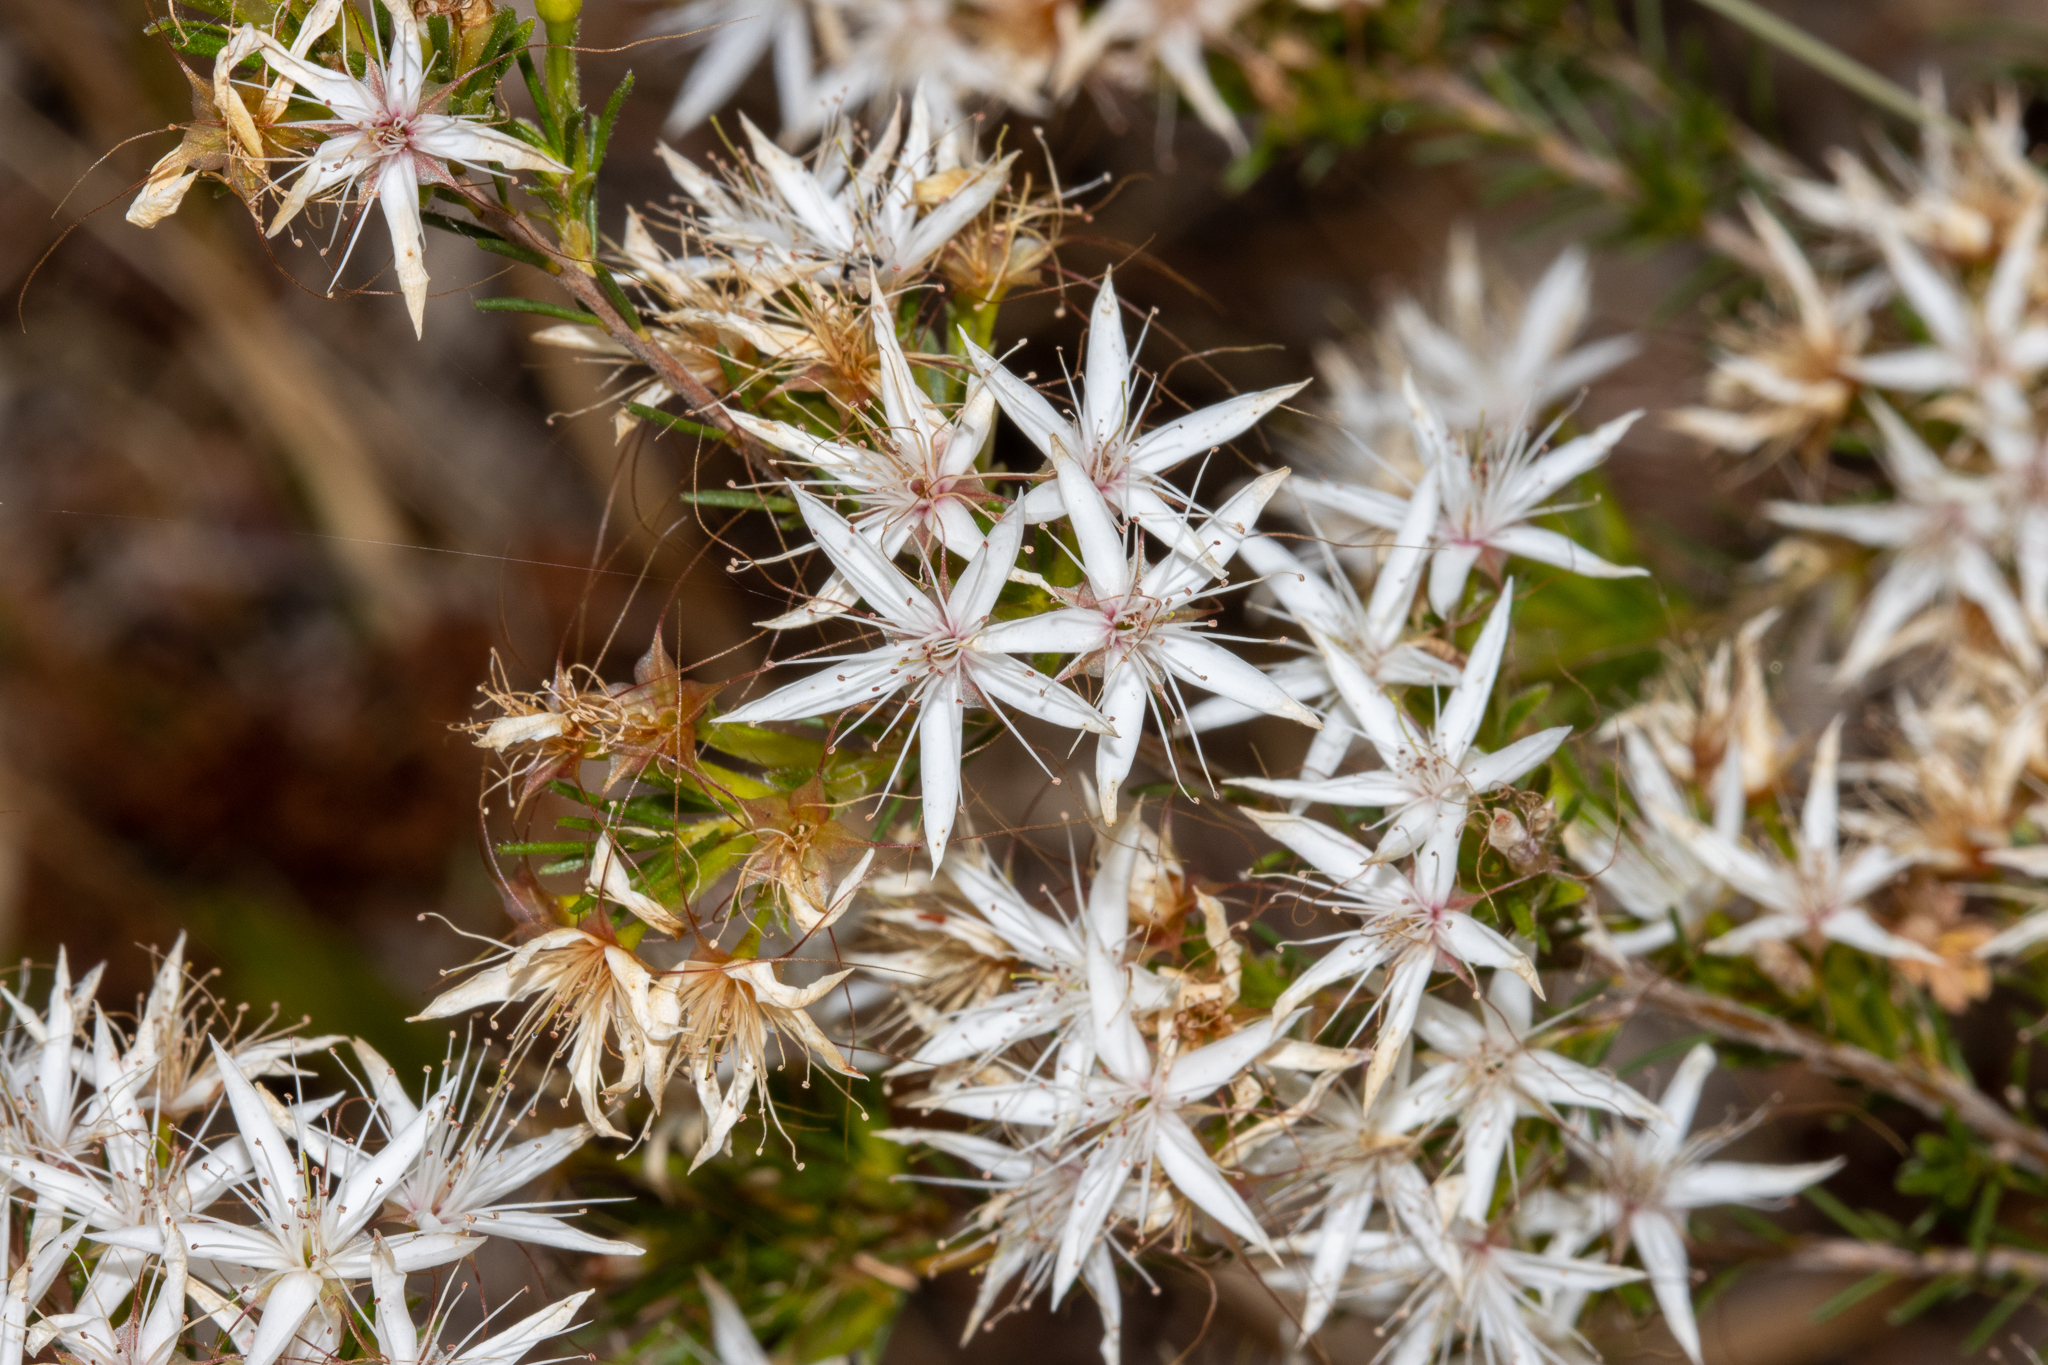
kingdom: Plantae
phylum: Tracheophyta
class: Magnoliopsida
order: Myrtales
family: Myrtaceae
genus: Calytrix
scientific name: Calytrix tetragona
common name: Common fringe myrtle
